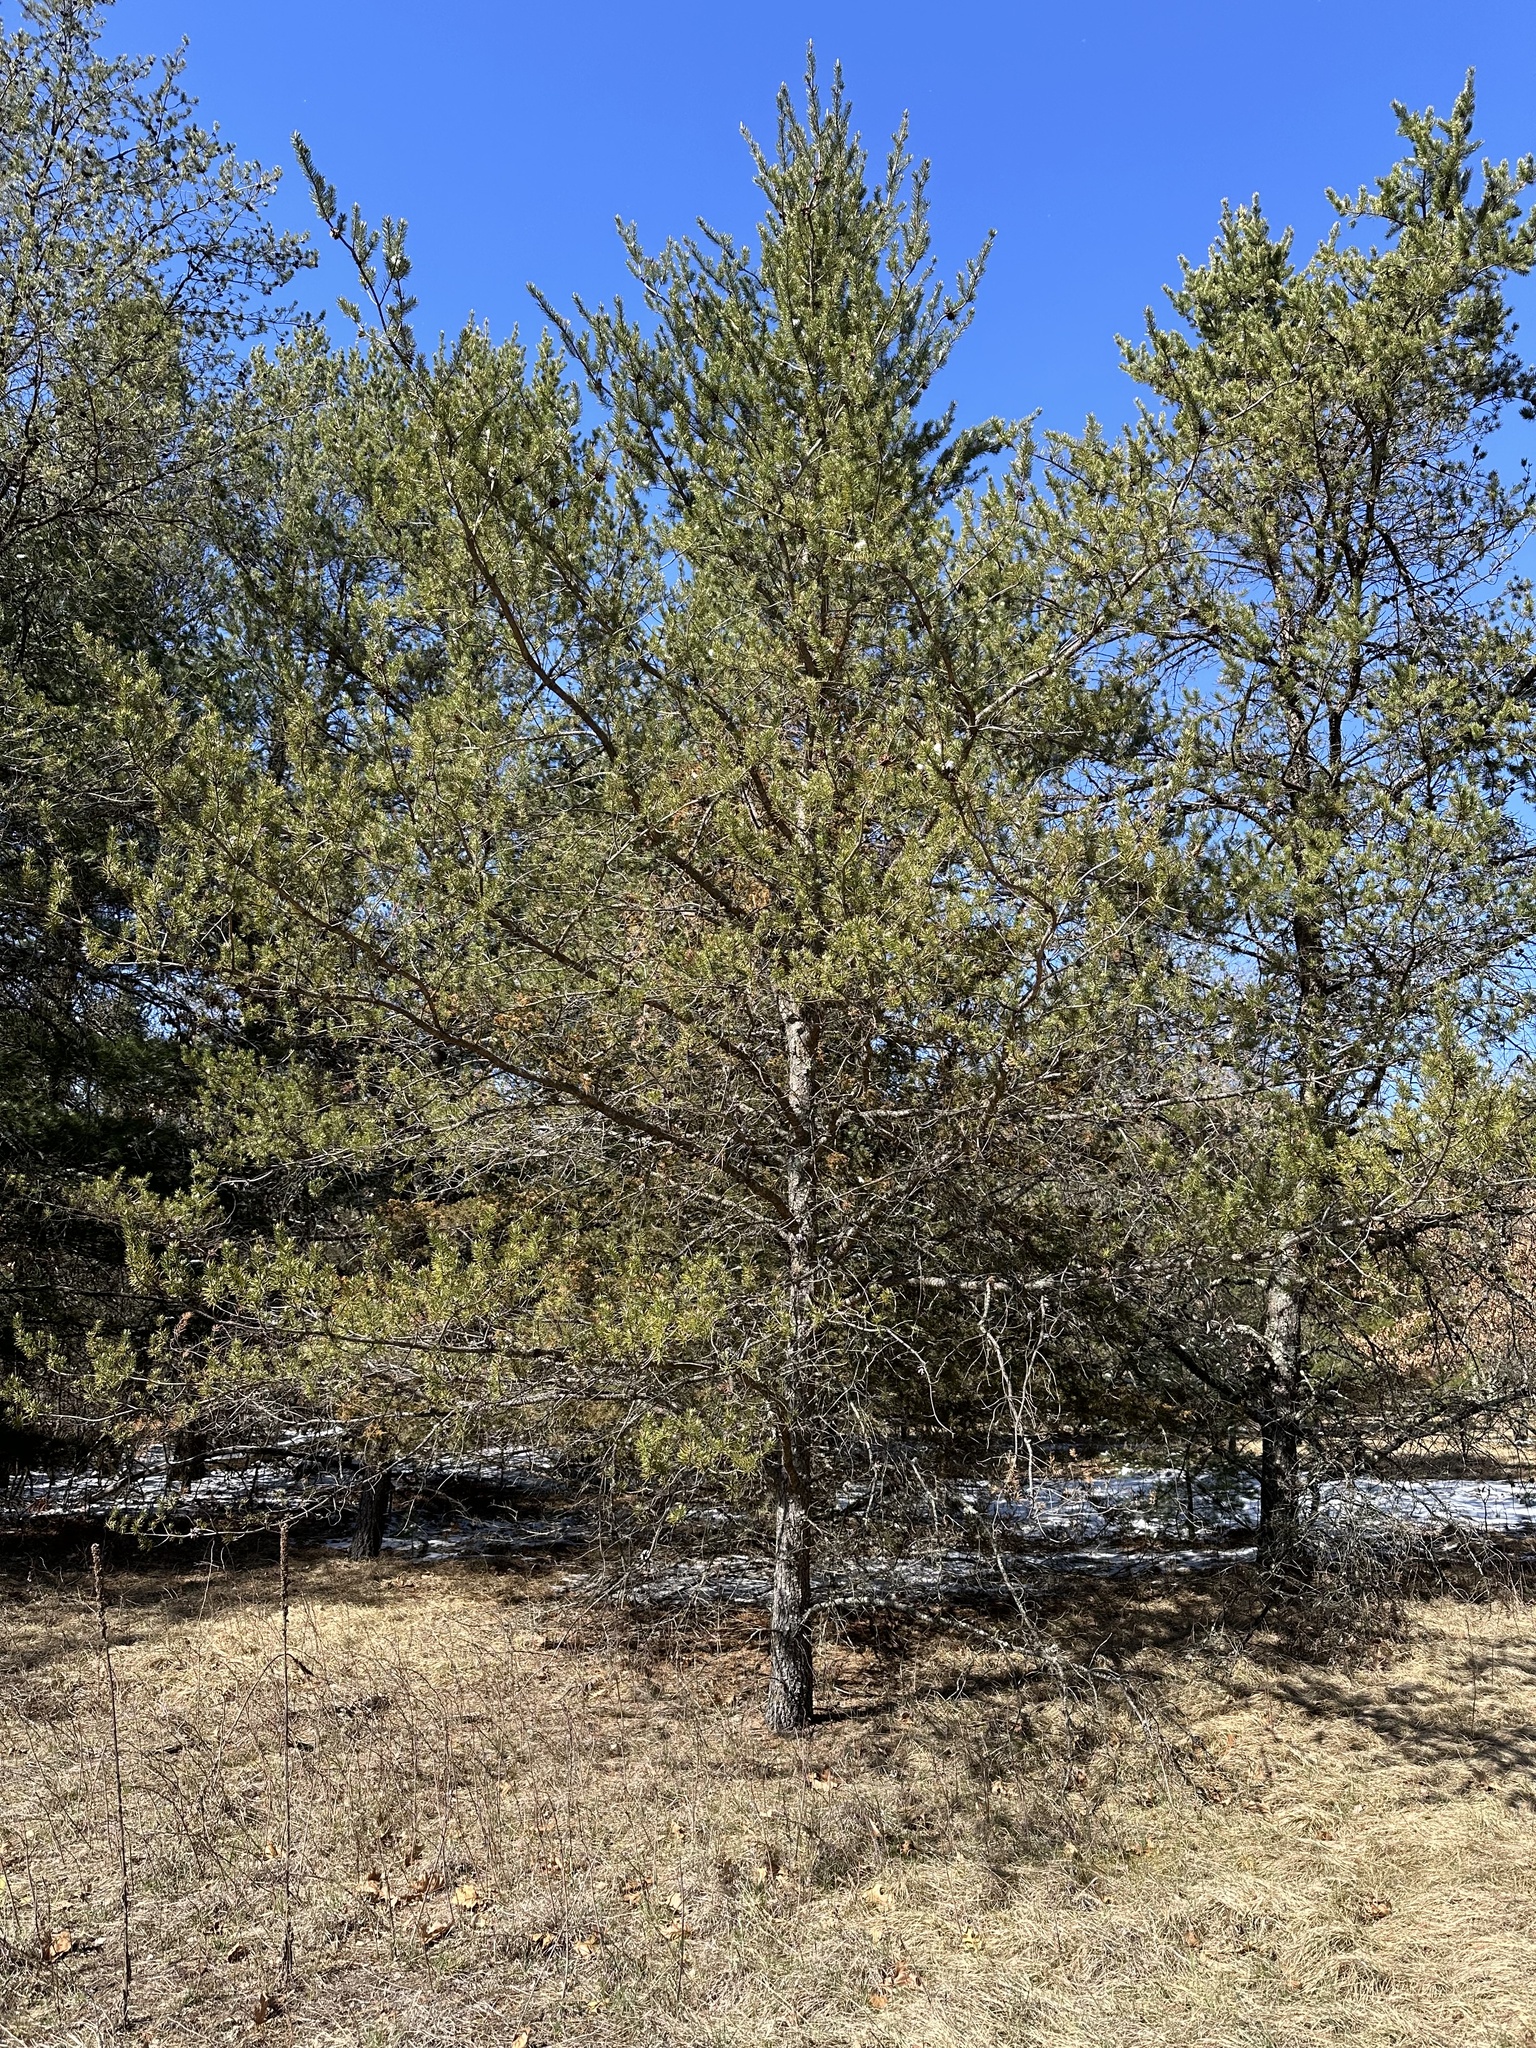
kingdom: Plantae
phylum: Tracheophyta
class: Pinopsida
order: Pinales
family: Pinaceae
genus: Pinus
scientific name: Pinus banksiana
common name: Jack pine
